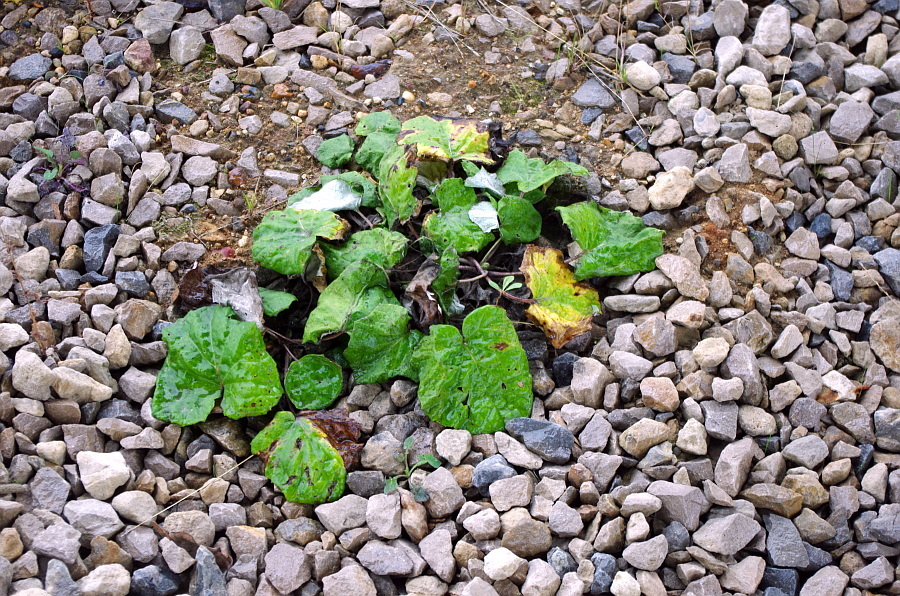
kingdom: Plantae
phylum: Tracheophyta
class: Magnoliopsida
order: Asterales
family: Asteraceae
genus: Tussilago
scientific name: Tussilago farfara
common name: Coltsfoot
